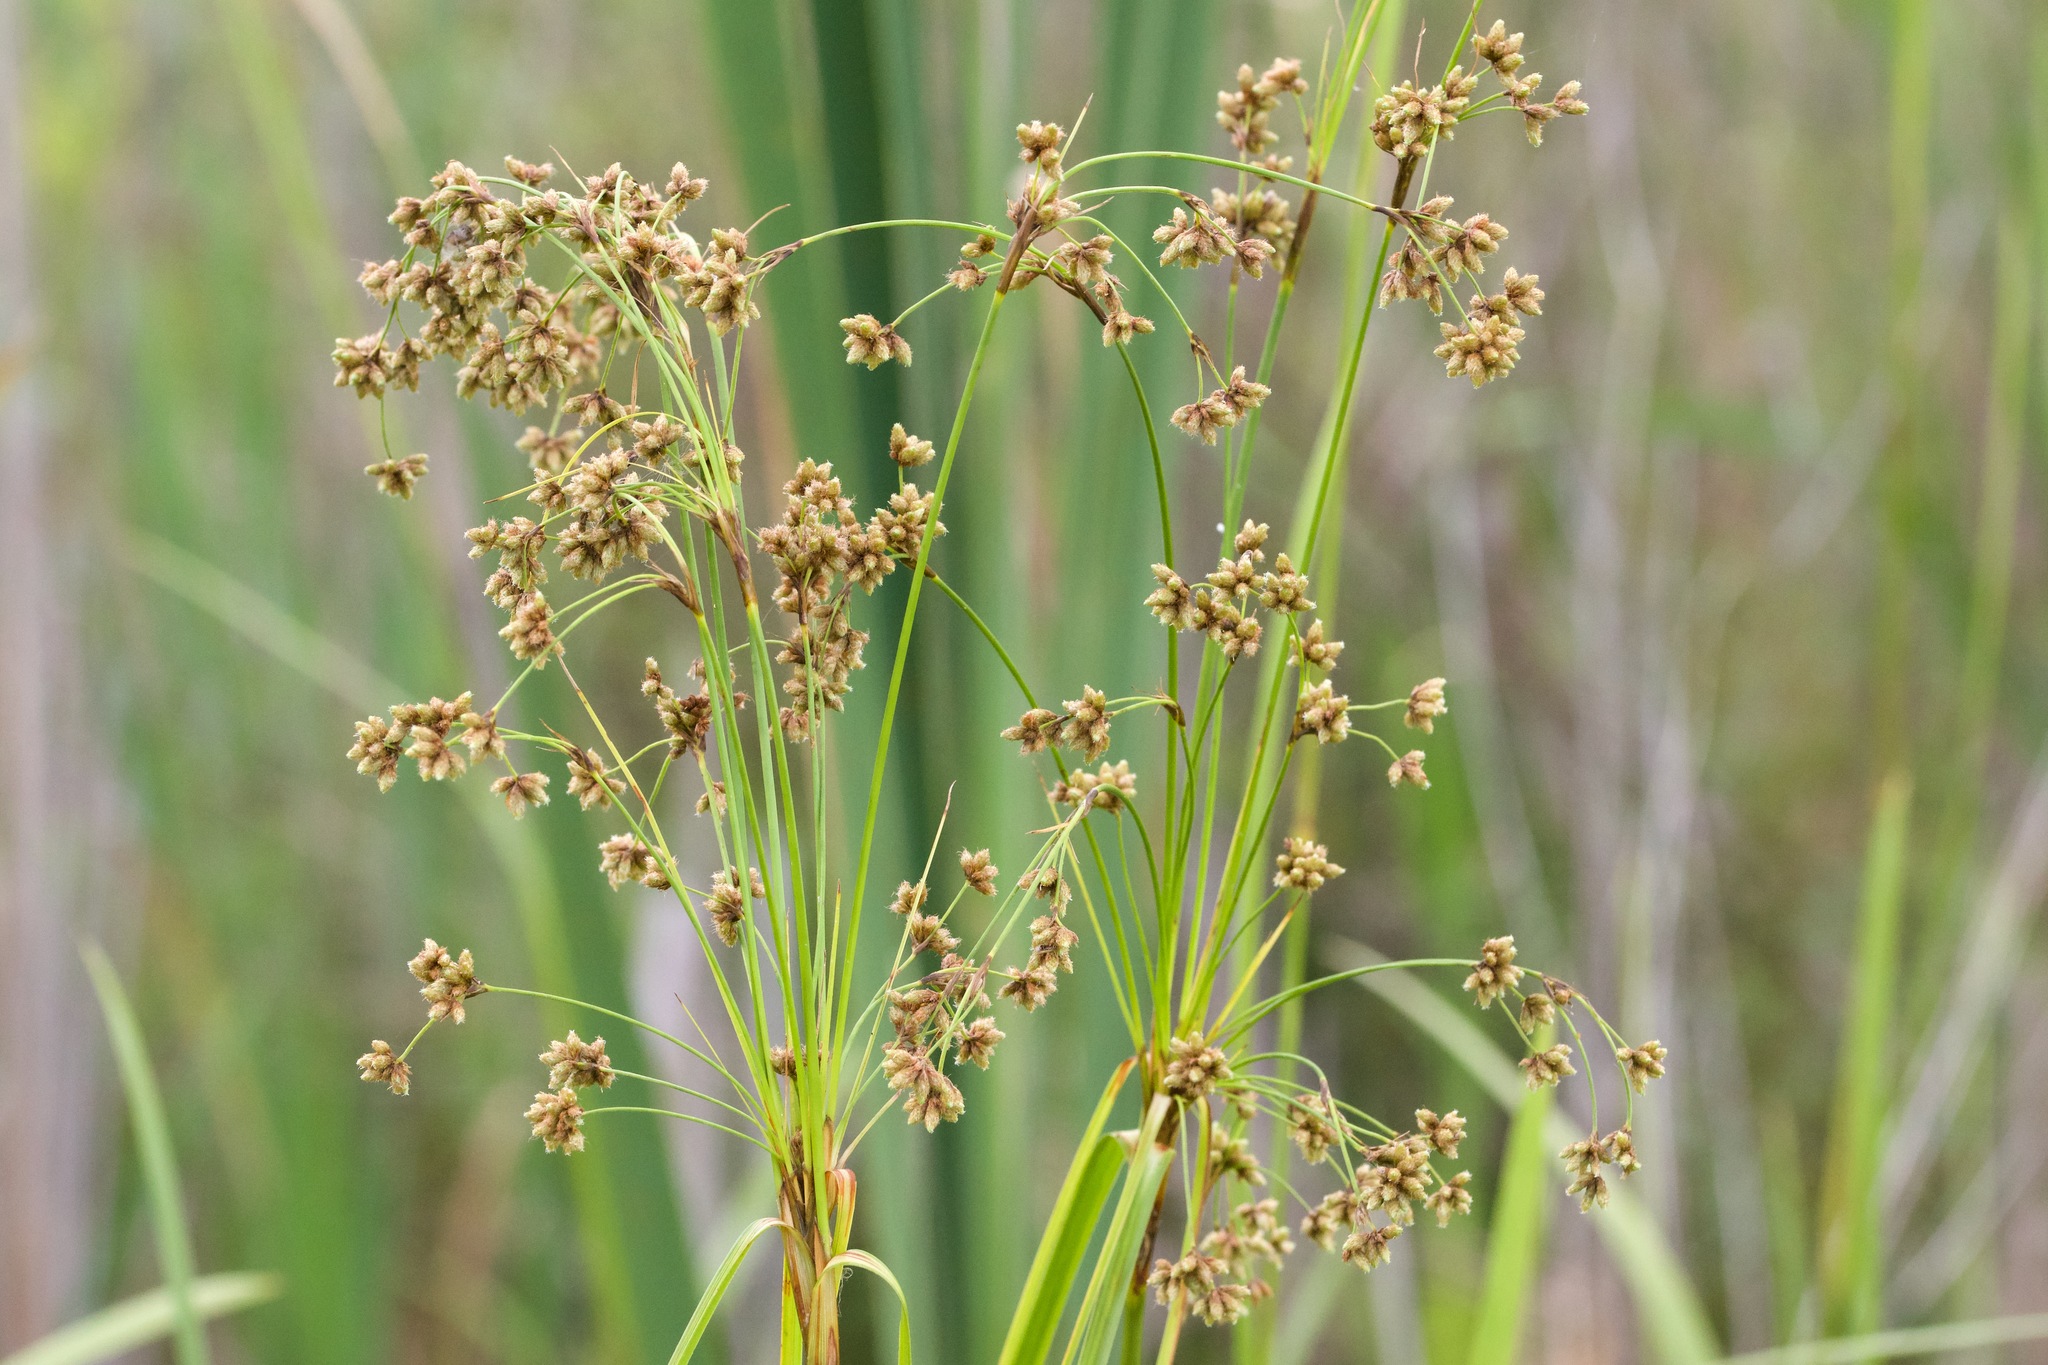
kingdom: Plantae
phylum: Tracheophyta
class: Liliopsida
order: Poales
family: Cyperaceae
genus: Scirpus
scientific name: Scirpus cyperinus
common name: Black-sheathed bulrush
